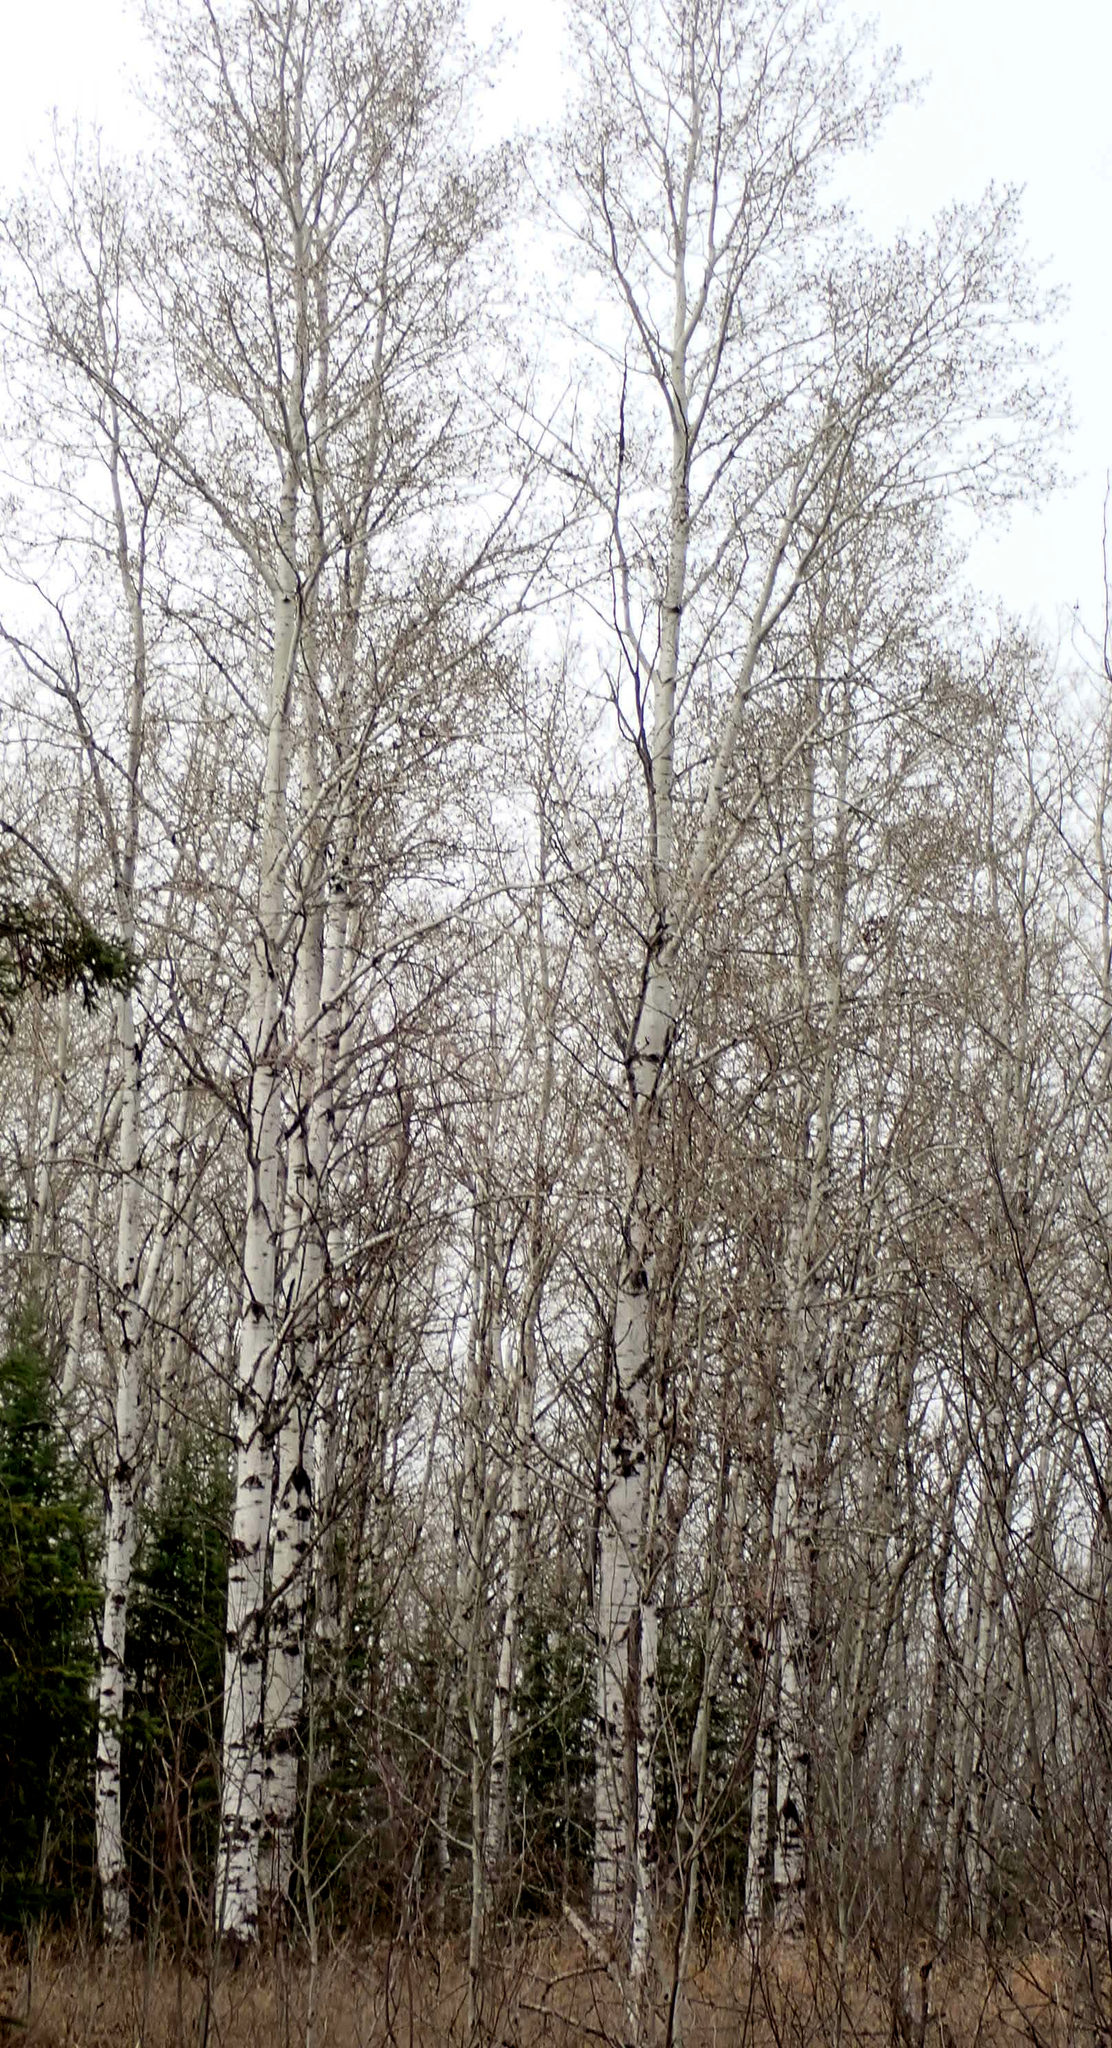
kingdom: Plantae
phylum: Tracheophyta
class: Magnoliopsida
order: Malpighiales
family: Salicaceae
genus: Populus
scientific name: Populus tremuloides
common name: Quaking aspen
